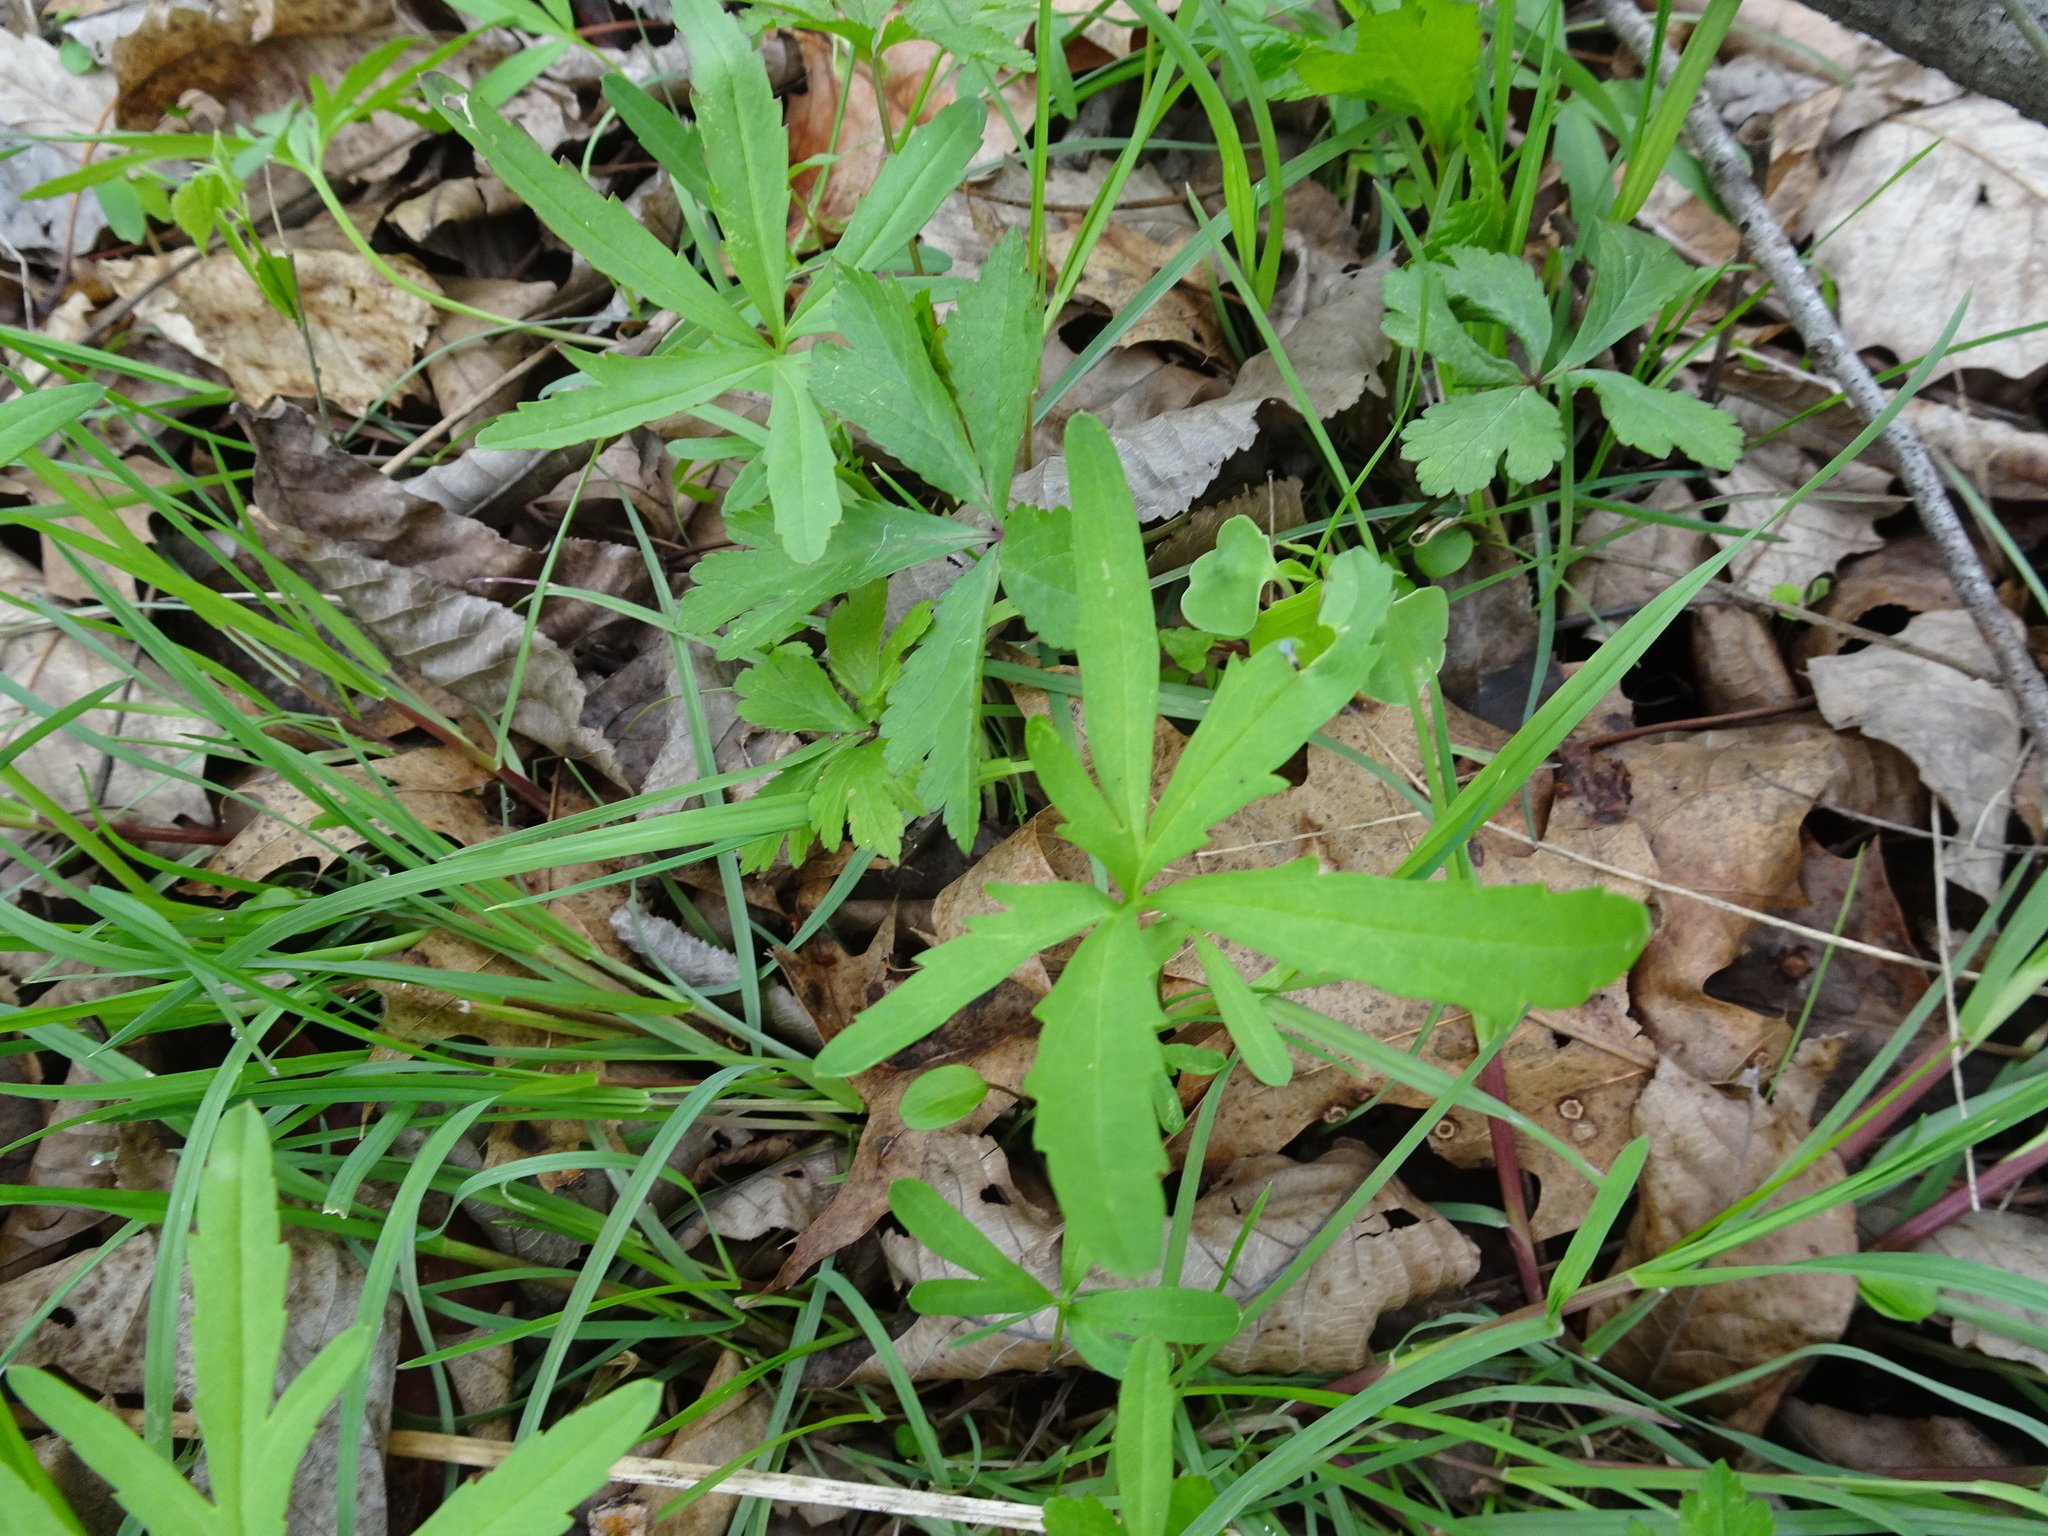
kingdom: Plantae
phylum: Tracheophyta
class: Magnoliopsida
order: Brassicales
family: Brassicaceae
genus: Cardamine
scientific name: Cardamine concatenata
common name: Cut-leaf toothcup
